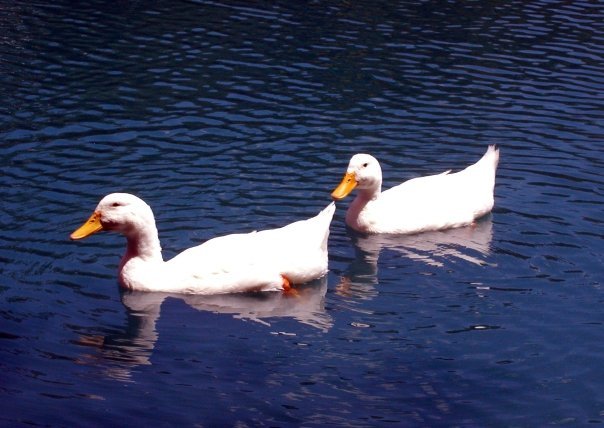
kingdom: Animalia
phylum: Chordata
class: Aves
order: Anseriformes
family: Anatidae
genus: Anas
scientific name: Anas platyrhynchos
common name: Mallard
